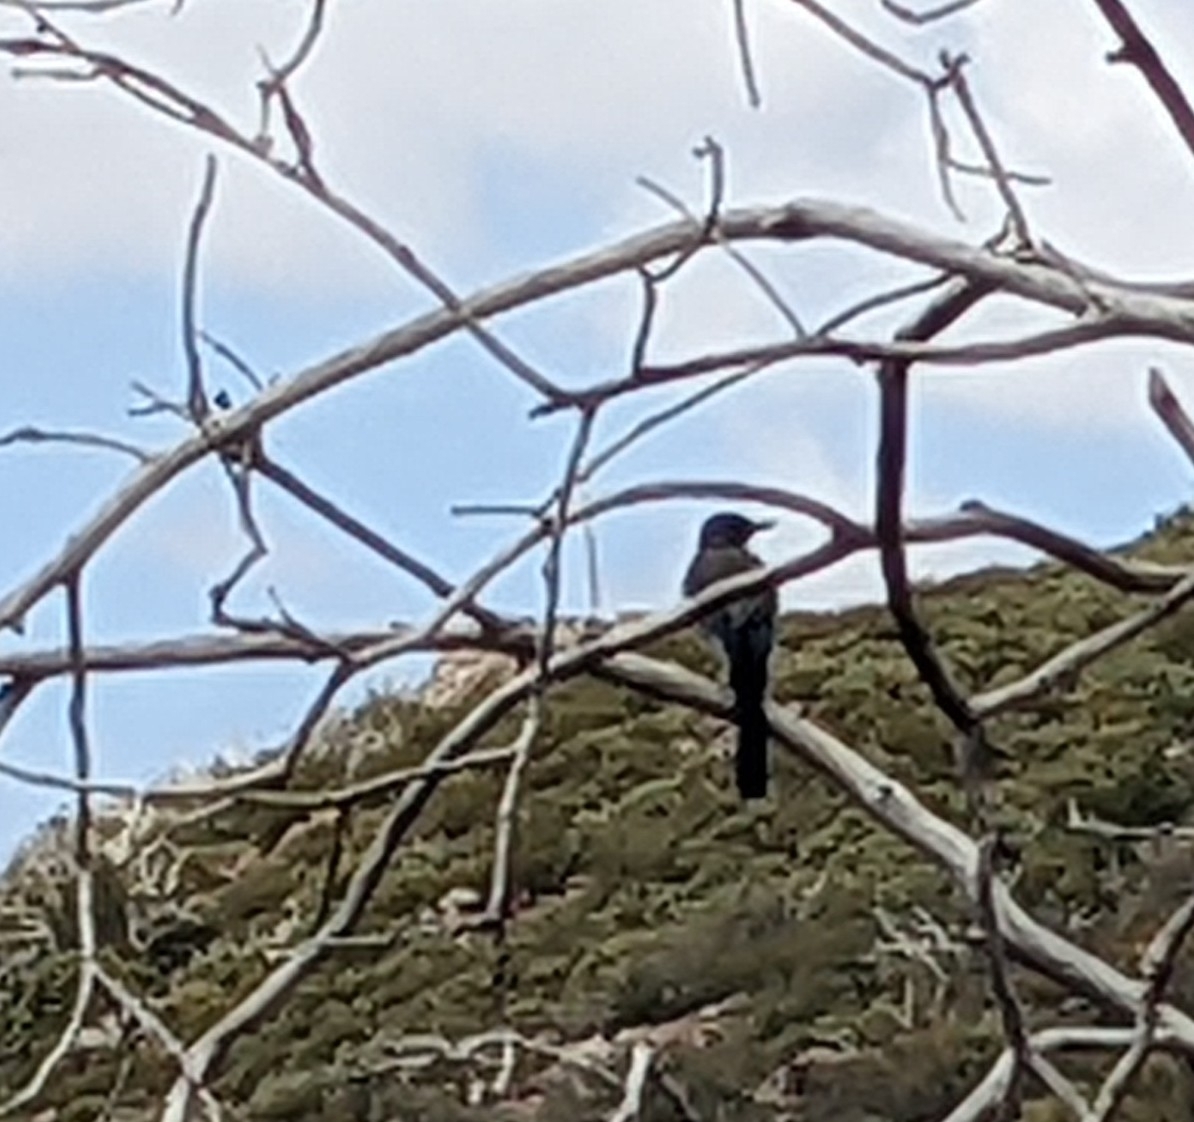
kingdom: Animalia
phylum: Chordata
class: Aves
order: Passeriformes
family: Corvidae
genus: Aphelocoma
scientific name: Aphelocoma californica
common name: California scrub-jay
